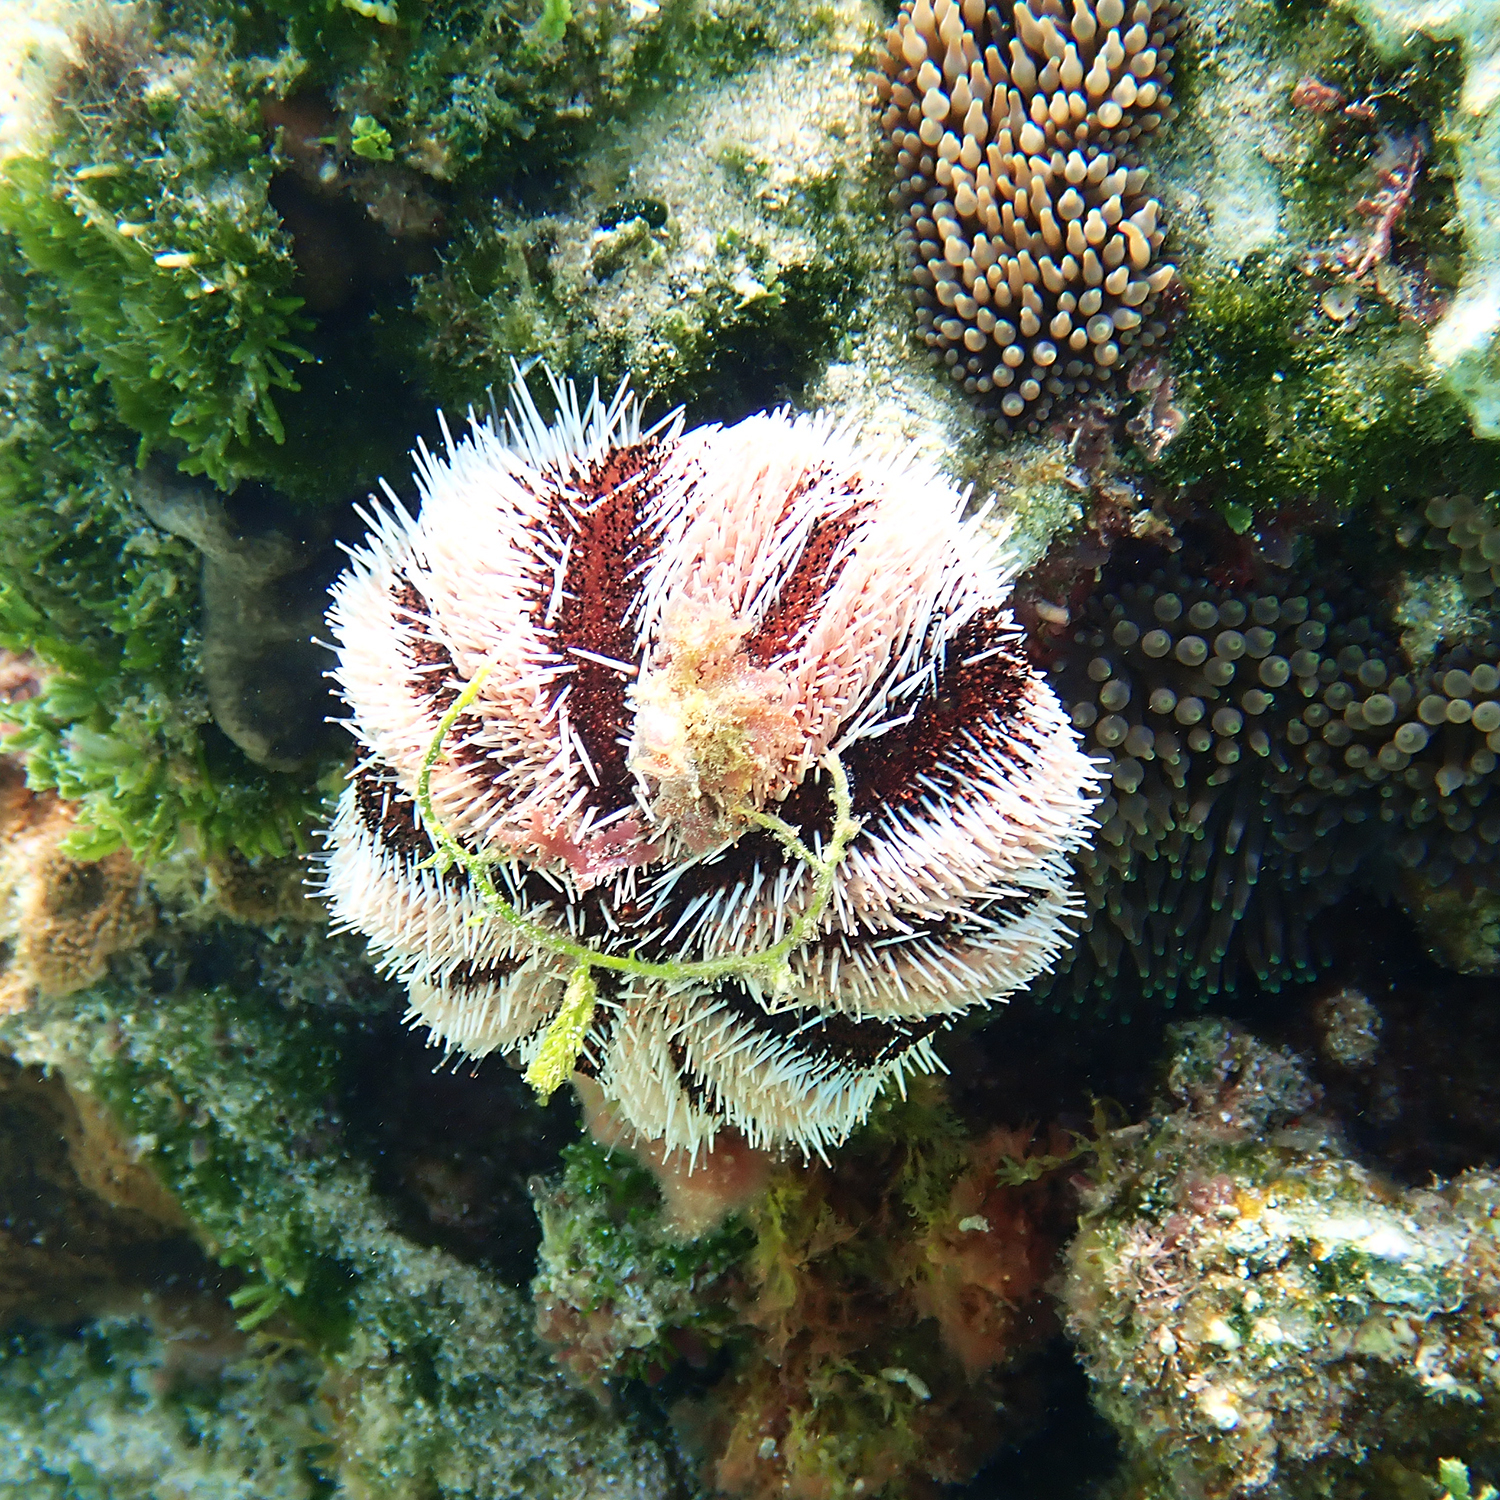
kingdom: Animalia
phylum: Echinodermata
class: Echinoidea
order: Camarodonta
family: Toxopneustidae
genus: Tripneustes
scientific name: Tripneustes gratilla
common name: Bischofsmützenseeigel
